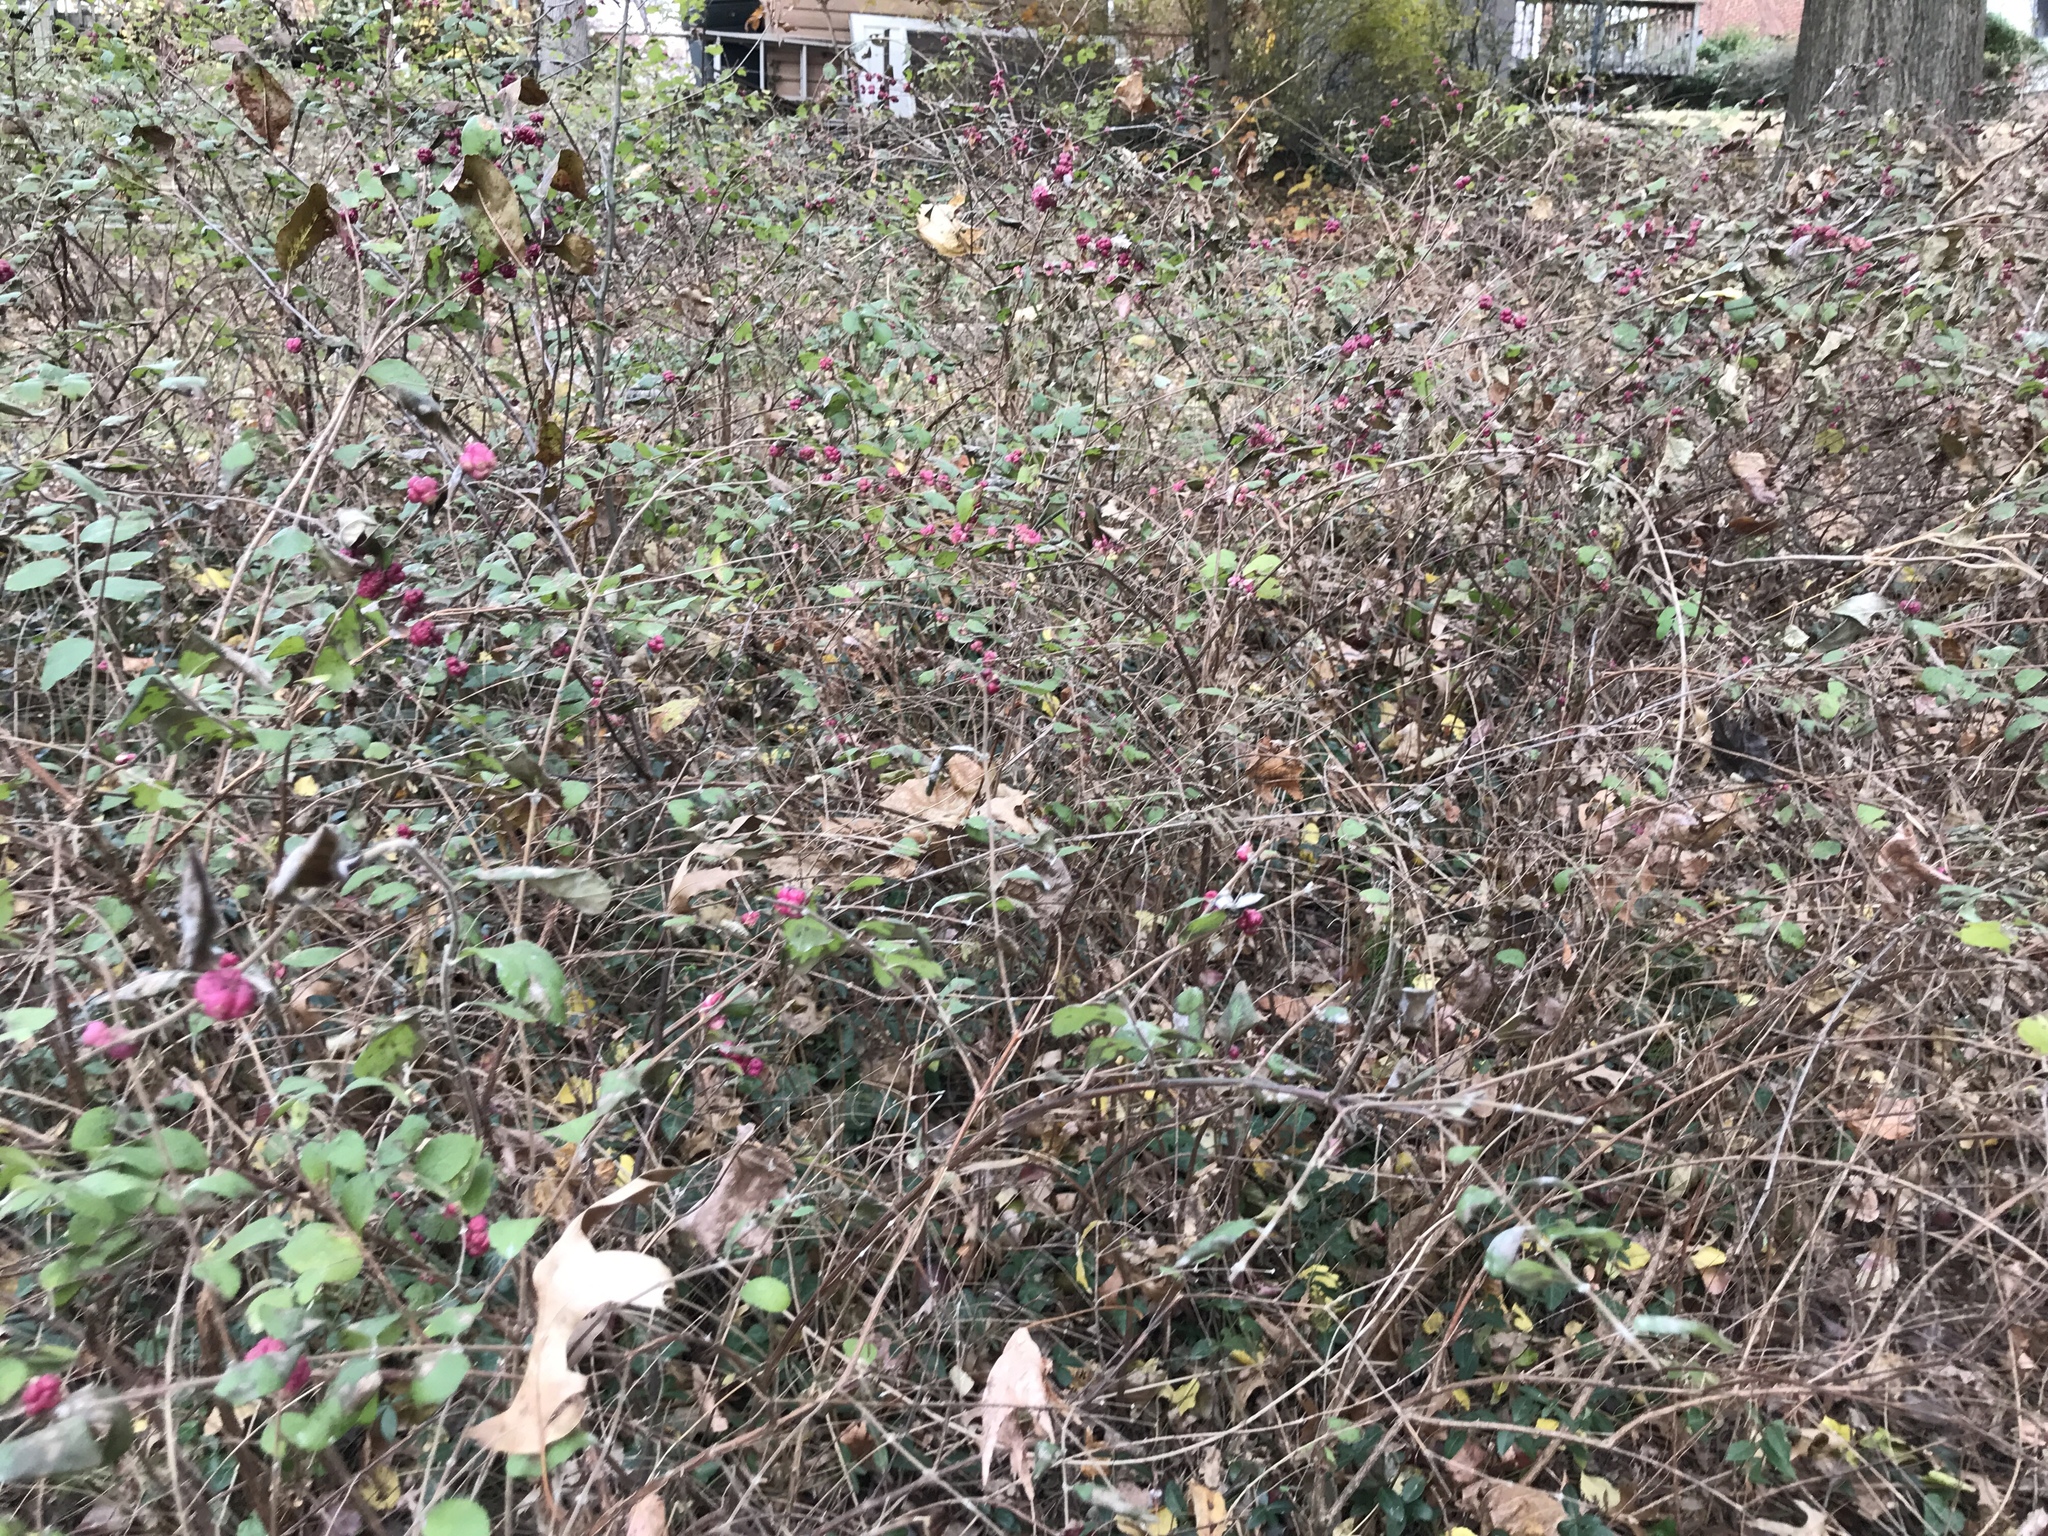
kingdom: Plantae
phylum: Tracheophyta
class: Magnoliopsida
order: Dipsacales
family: Caprifoliaceae
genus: Symphoricarpos
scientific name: Symphoricarpos orbiculatus
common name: Coralberry
